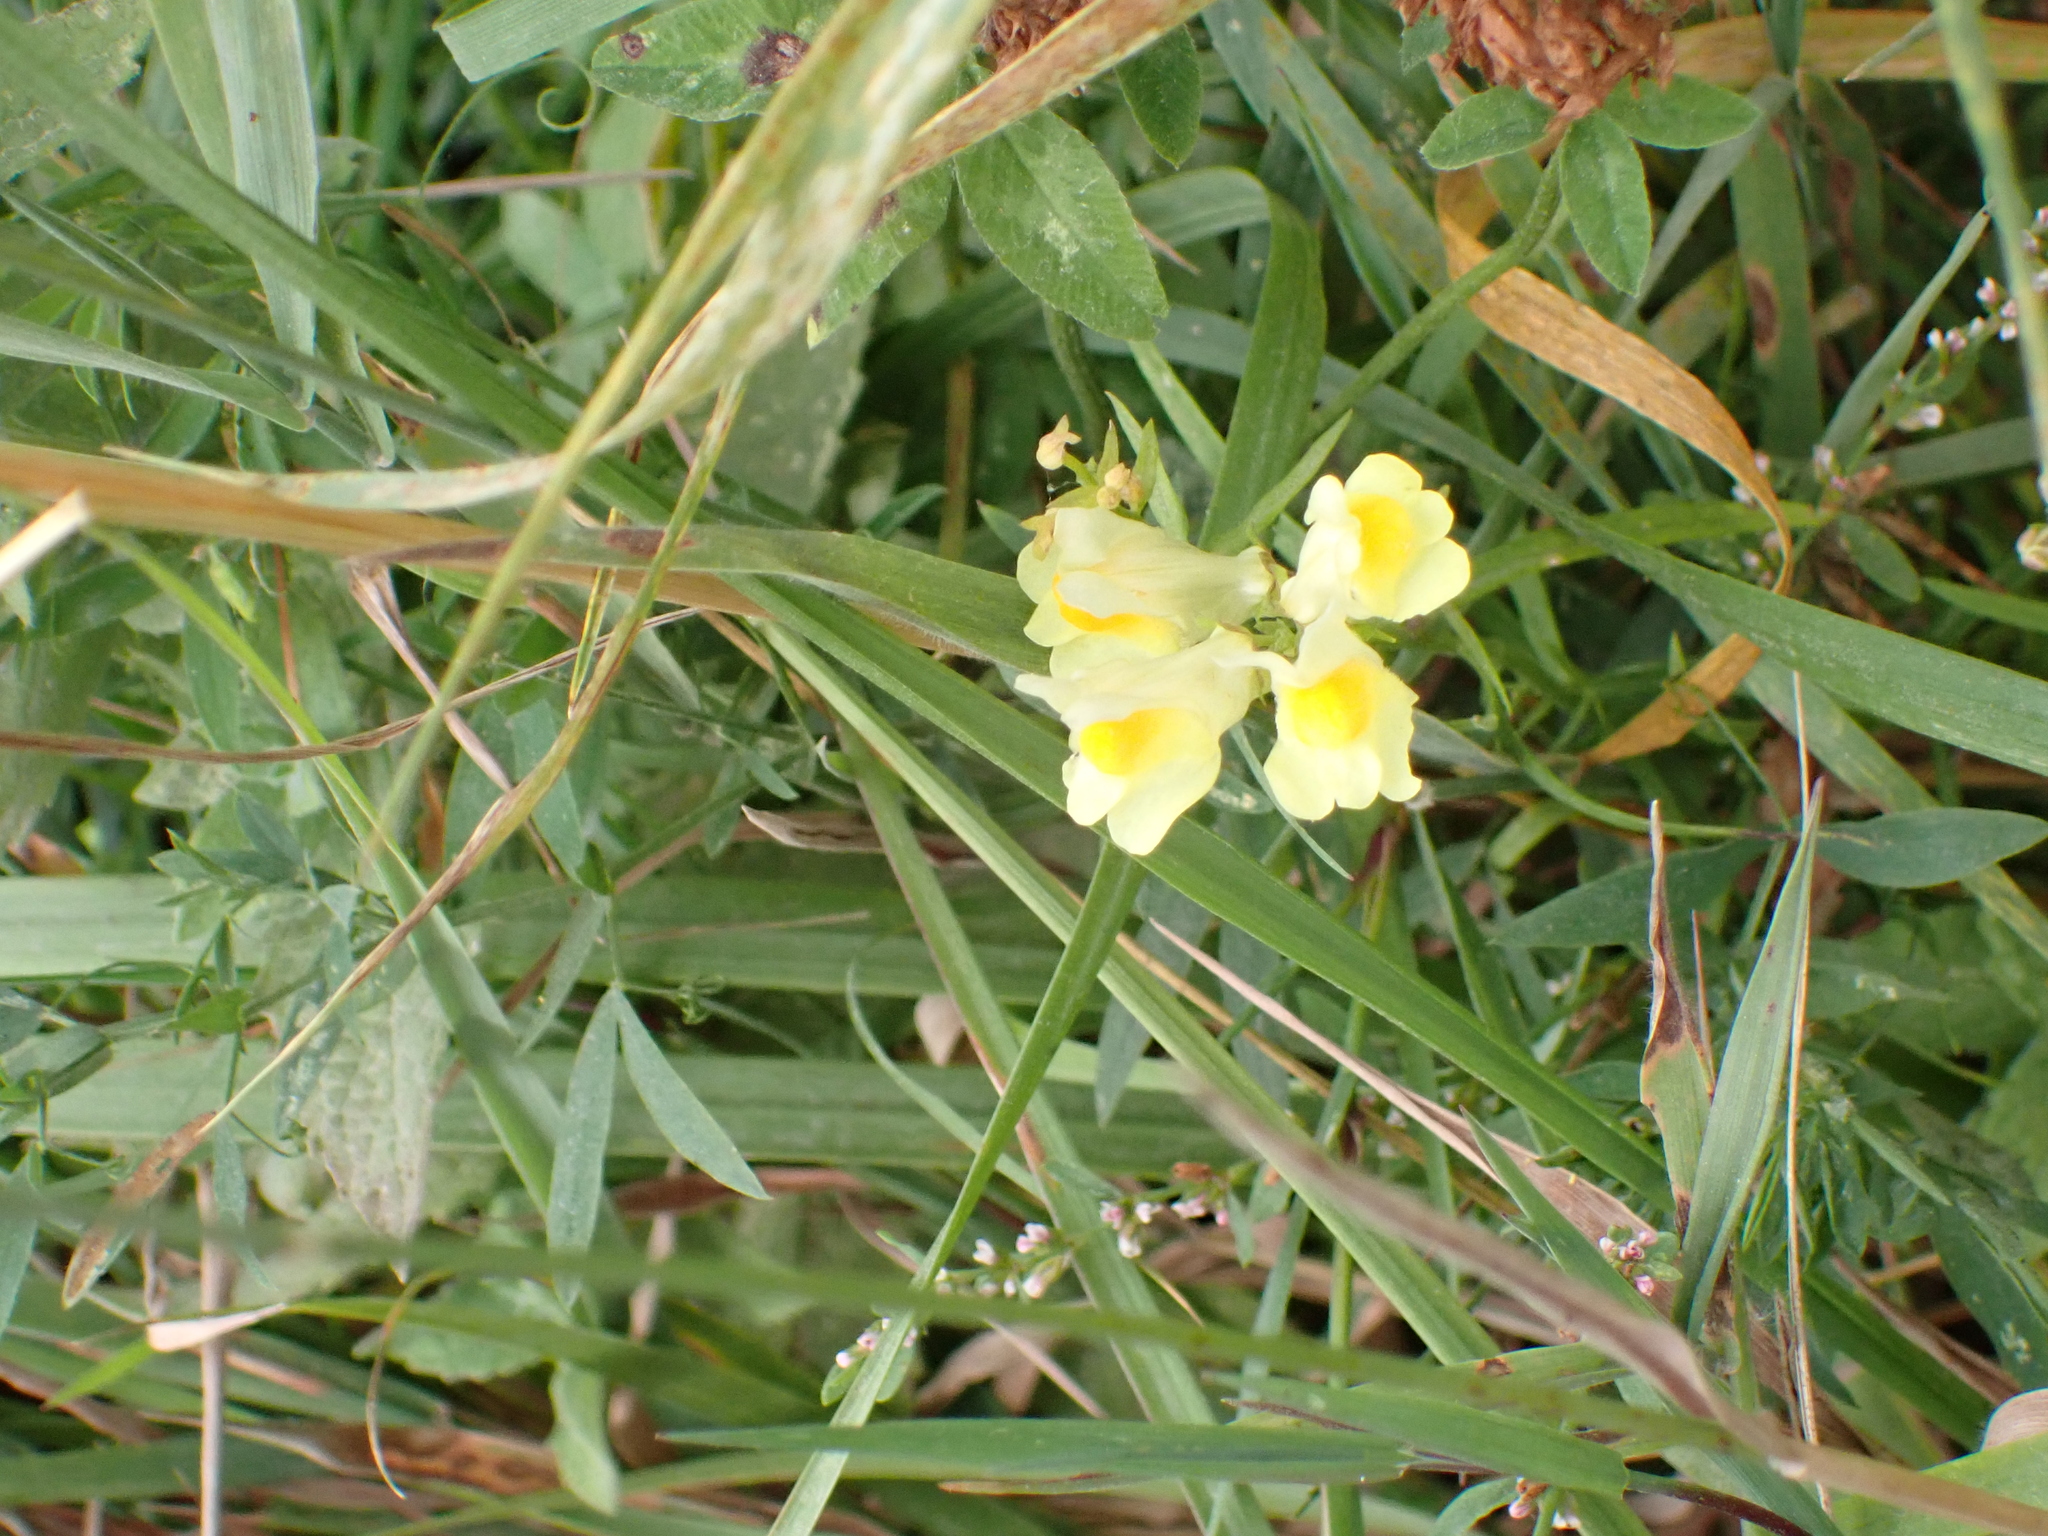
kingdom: Plantae
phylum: Tracheophyta
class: Magnoliopsida
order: Lamiales
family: Plantaginaceae
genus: Linaria
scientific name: Linaria vulgaris
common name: Butter and eggs
